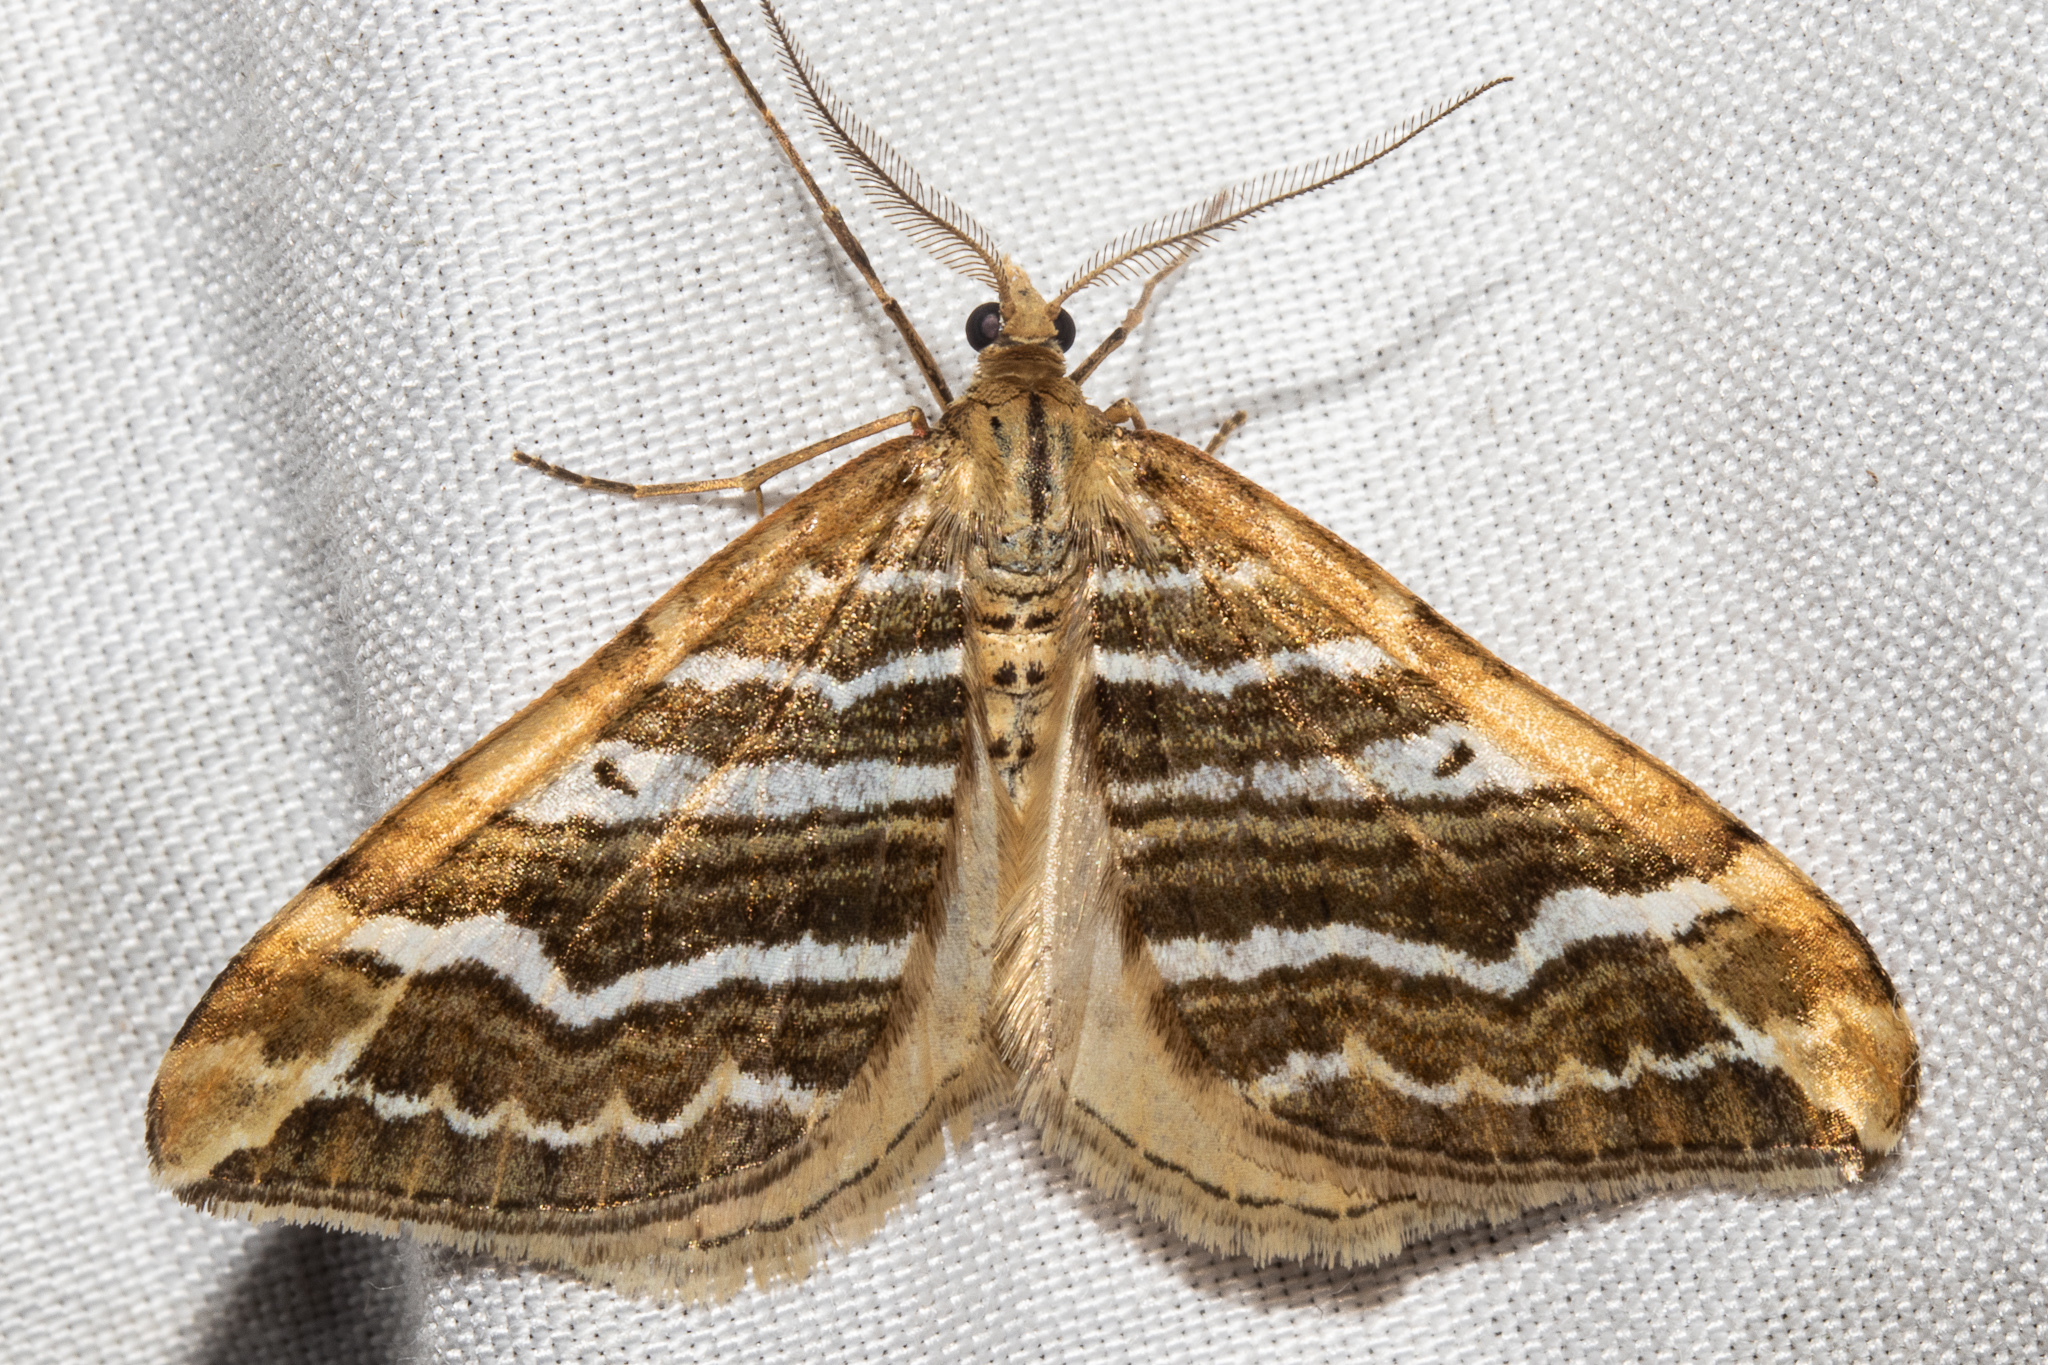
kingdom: Animalia
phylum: Arthropoda
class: Insecta
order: Lepidoptera
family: Geometridae
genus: Asaphodes
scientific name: Asaphodes cataphracta
